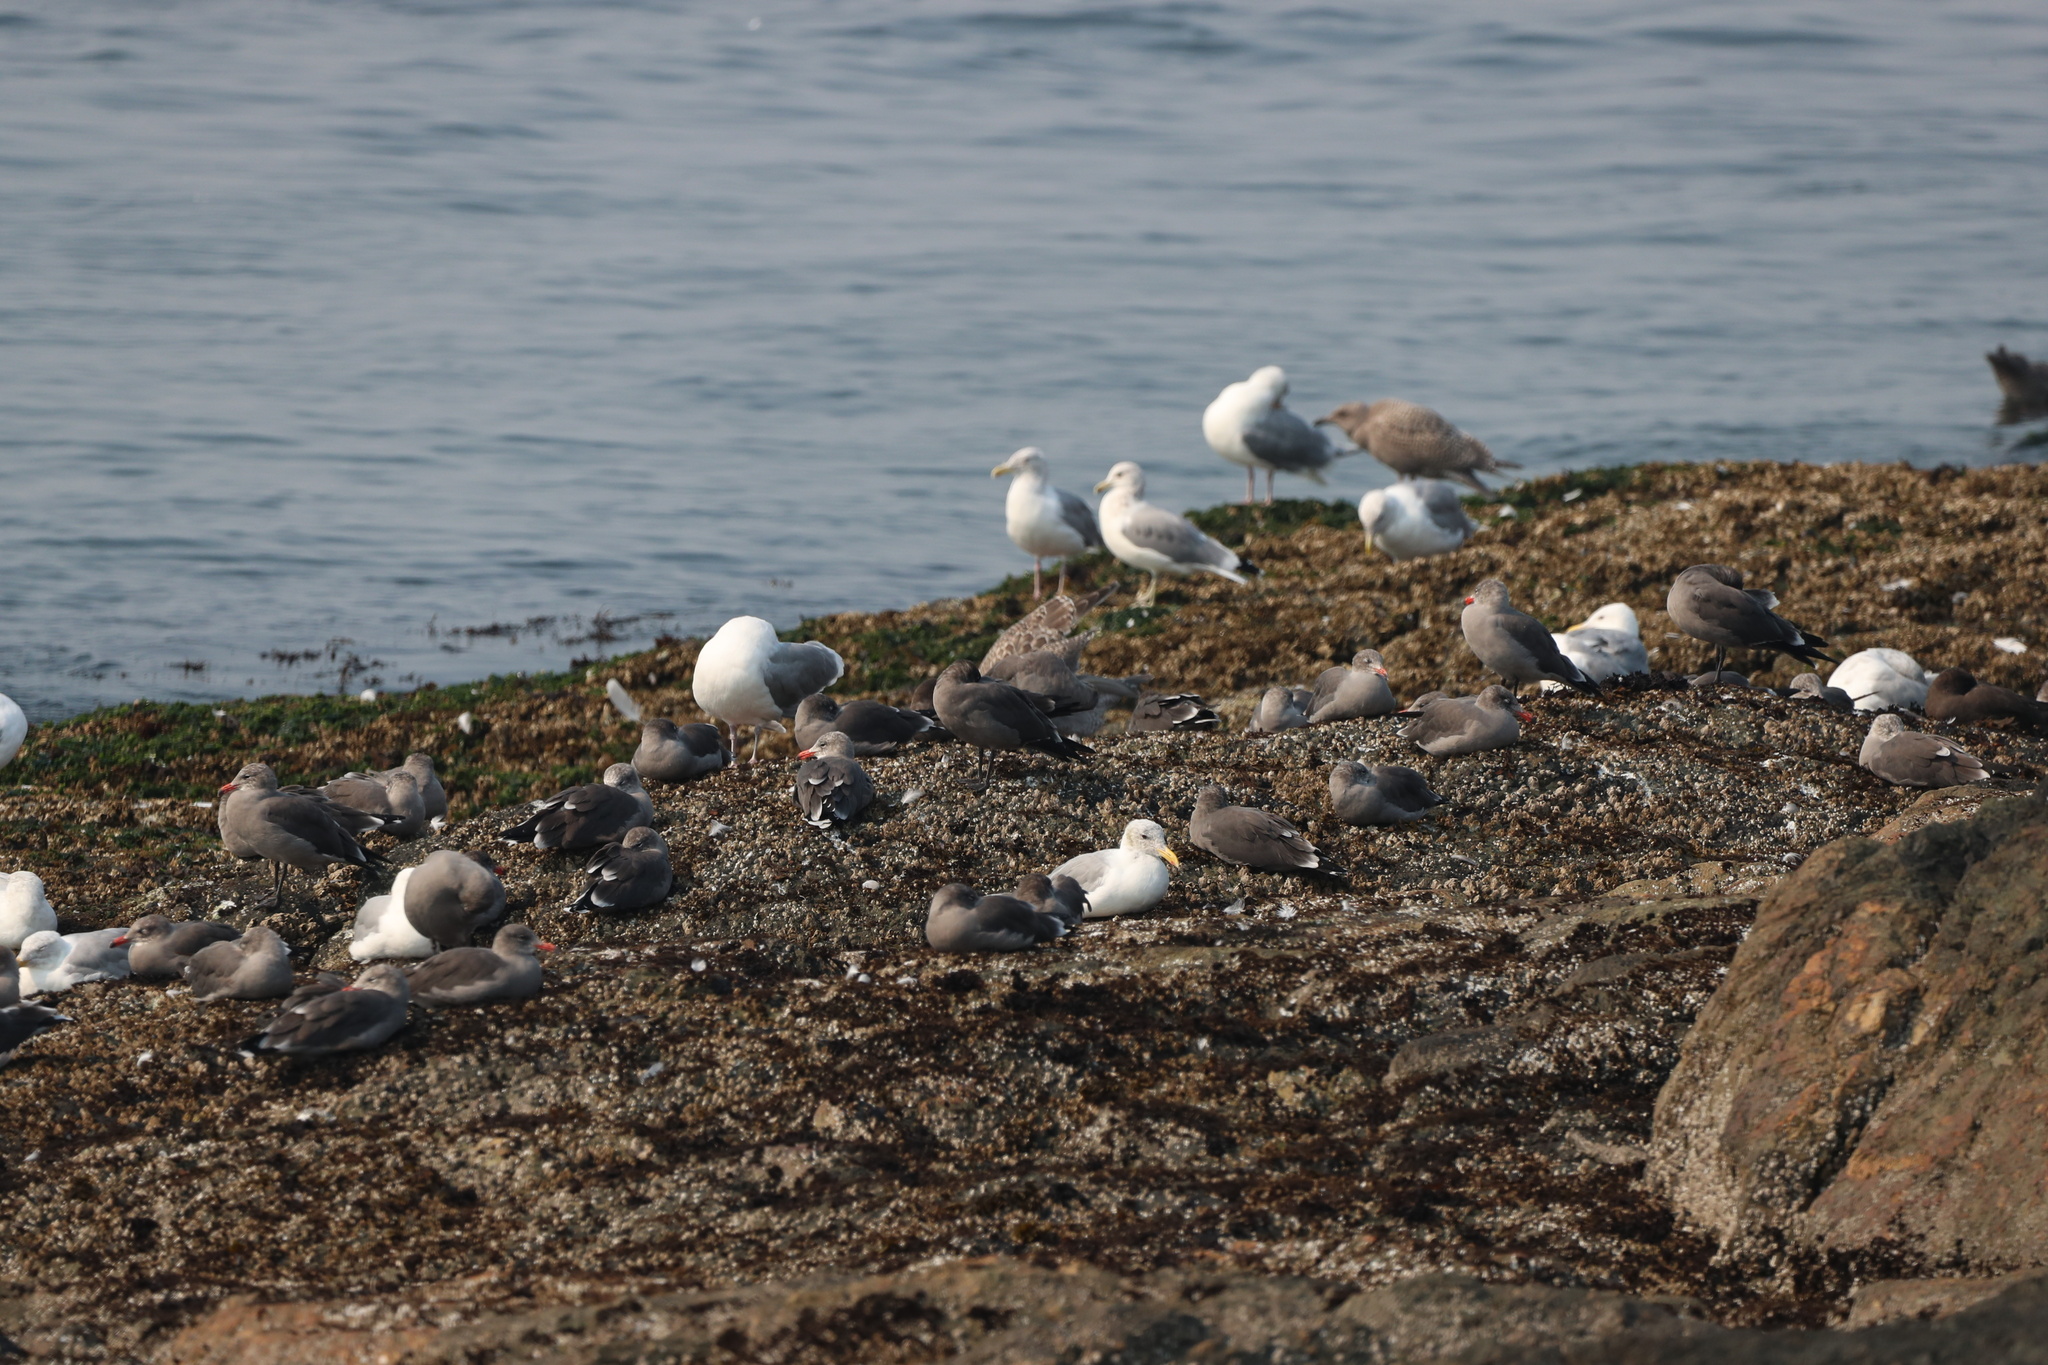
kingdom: Animalia
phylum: Chordata
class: Aves
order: Charadriiformes
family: Laridae
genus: Larus
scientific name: Larus heermanni
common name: Heermann's gull
